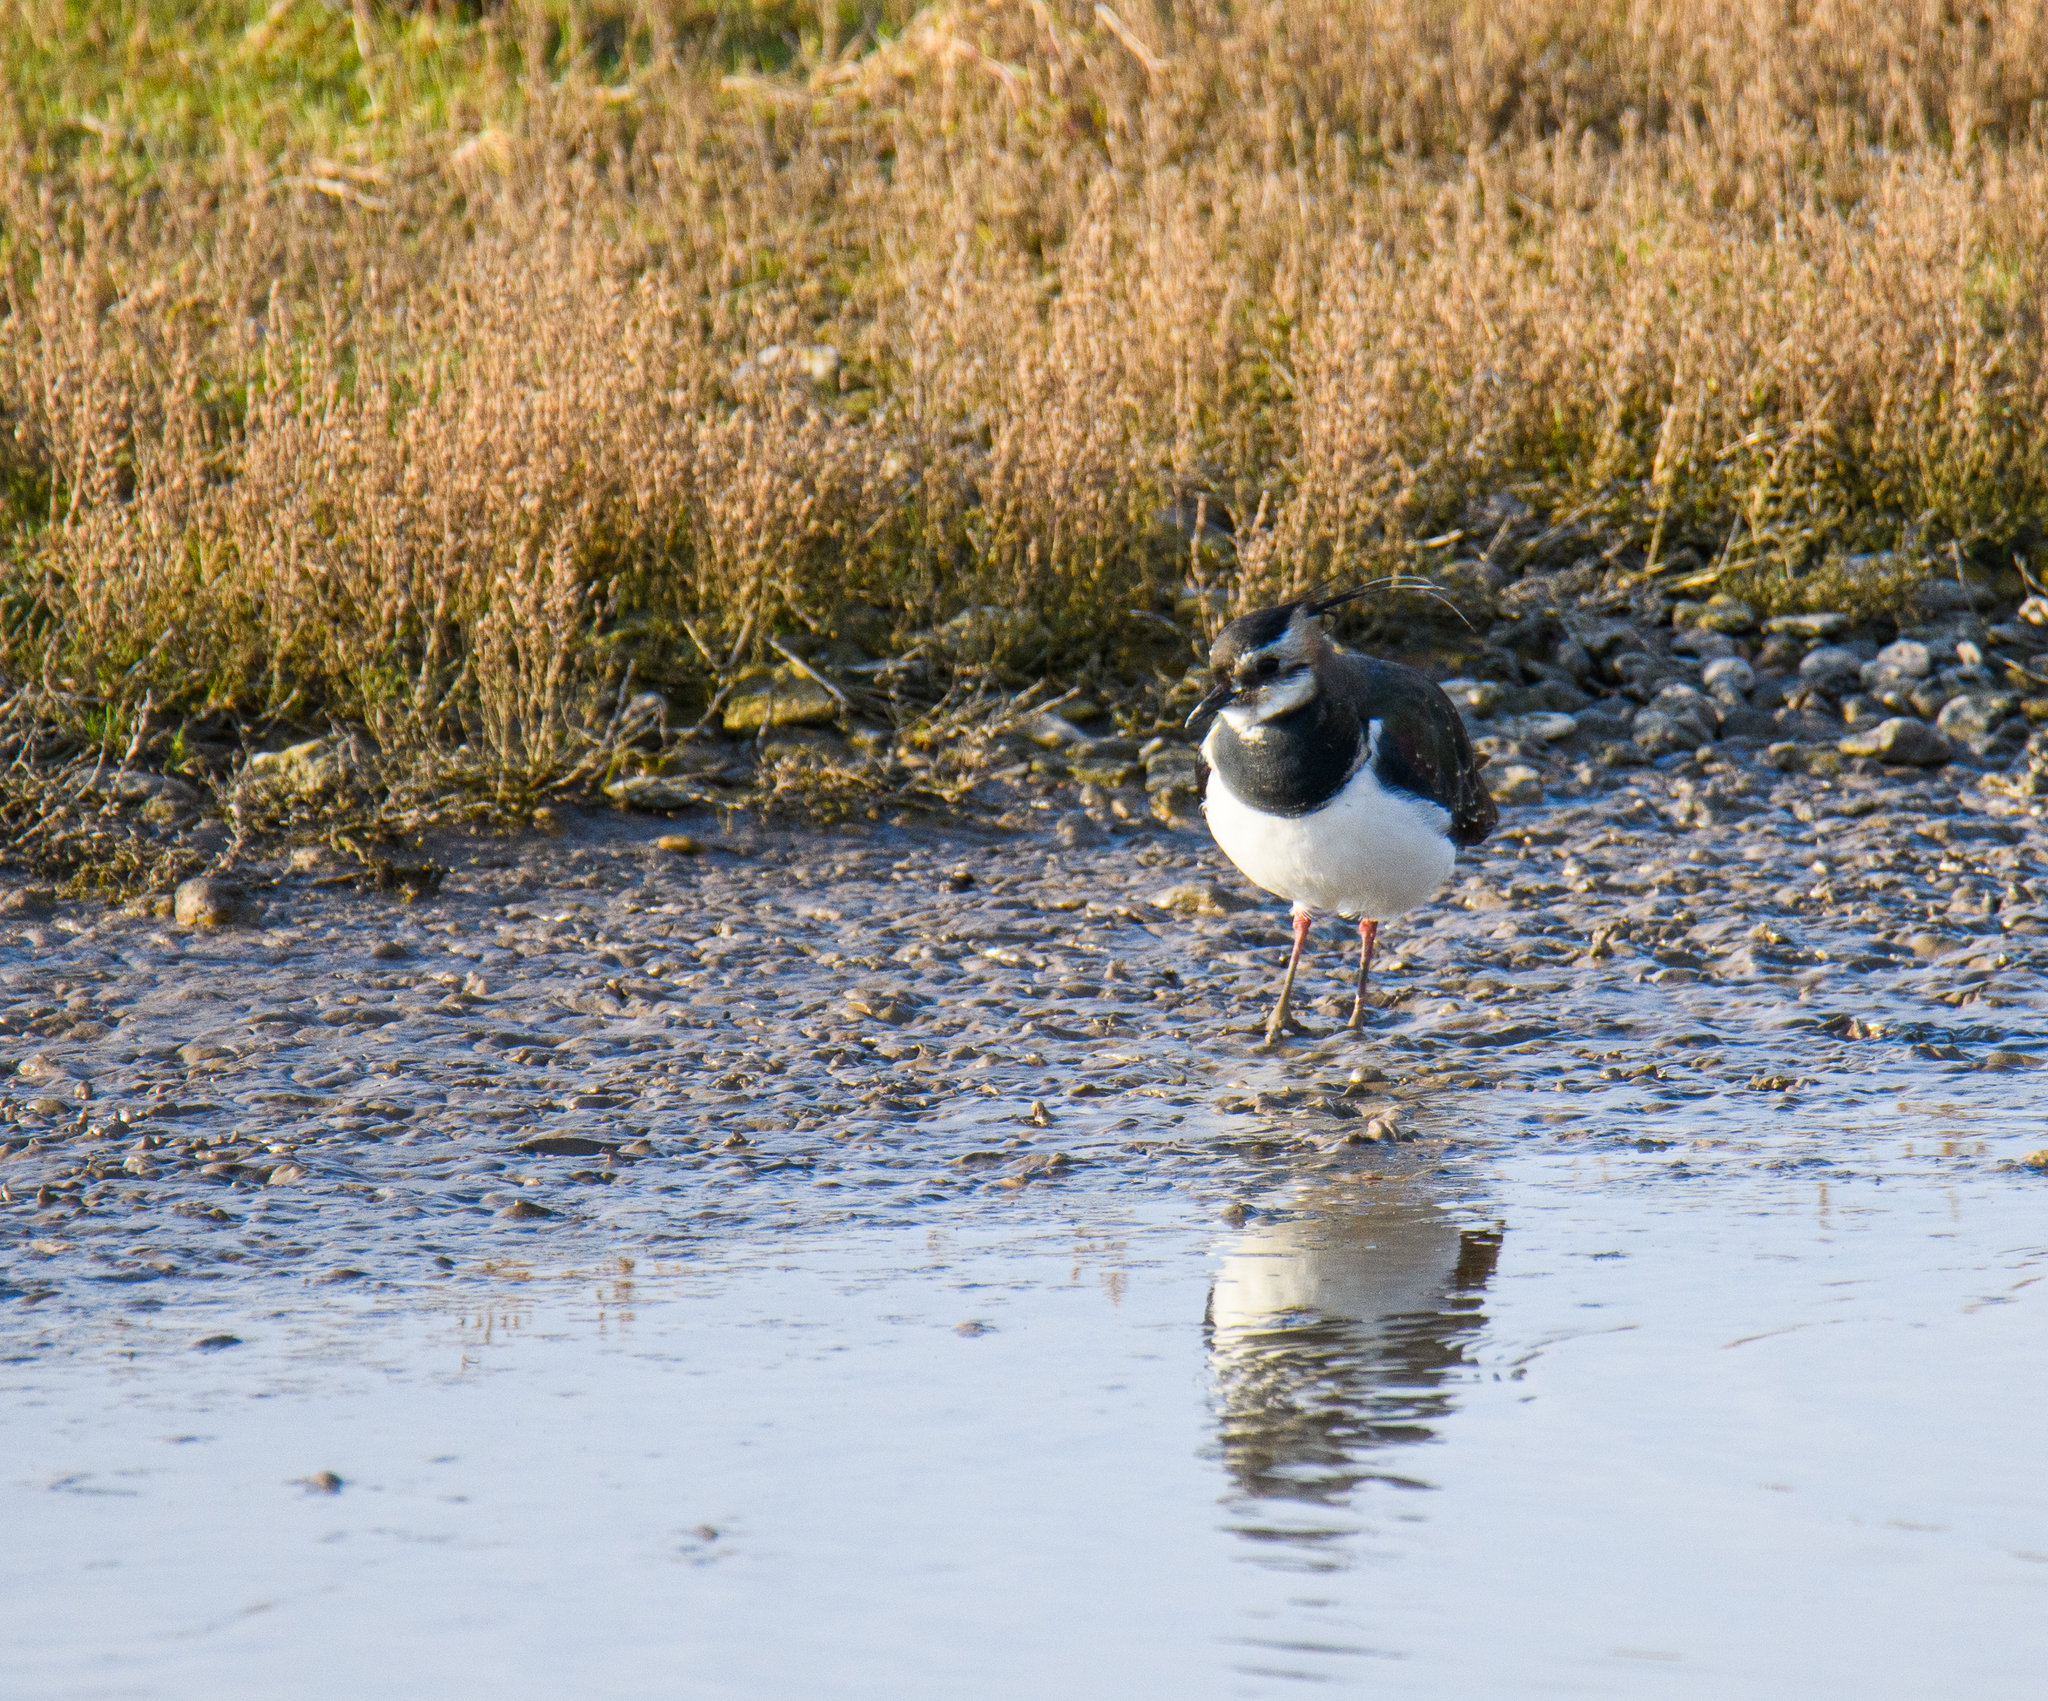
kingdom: Animalia
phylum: Chordata
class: Aves
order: Charadriiformes
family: Charadriidae
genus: Vanellus
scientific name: Vanellus vanellus
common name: Northern lapwing
